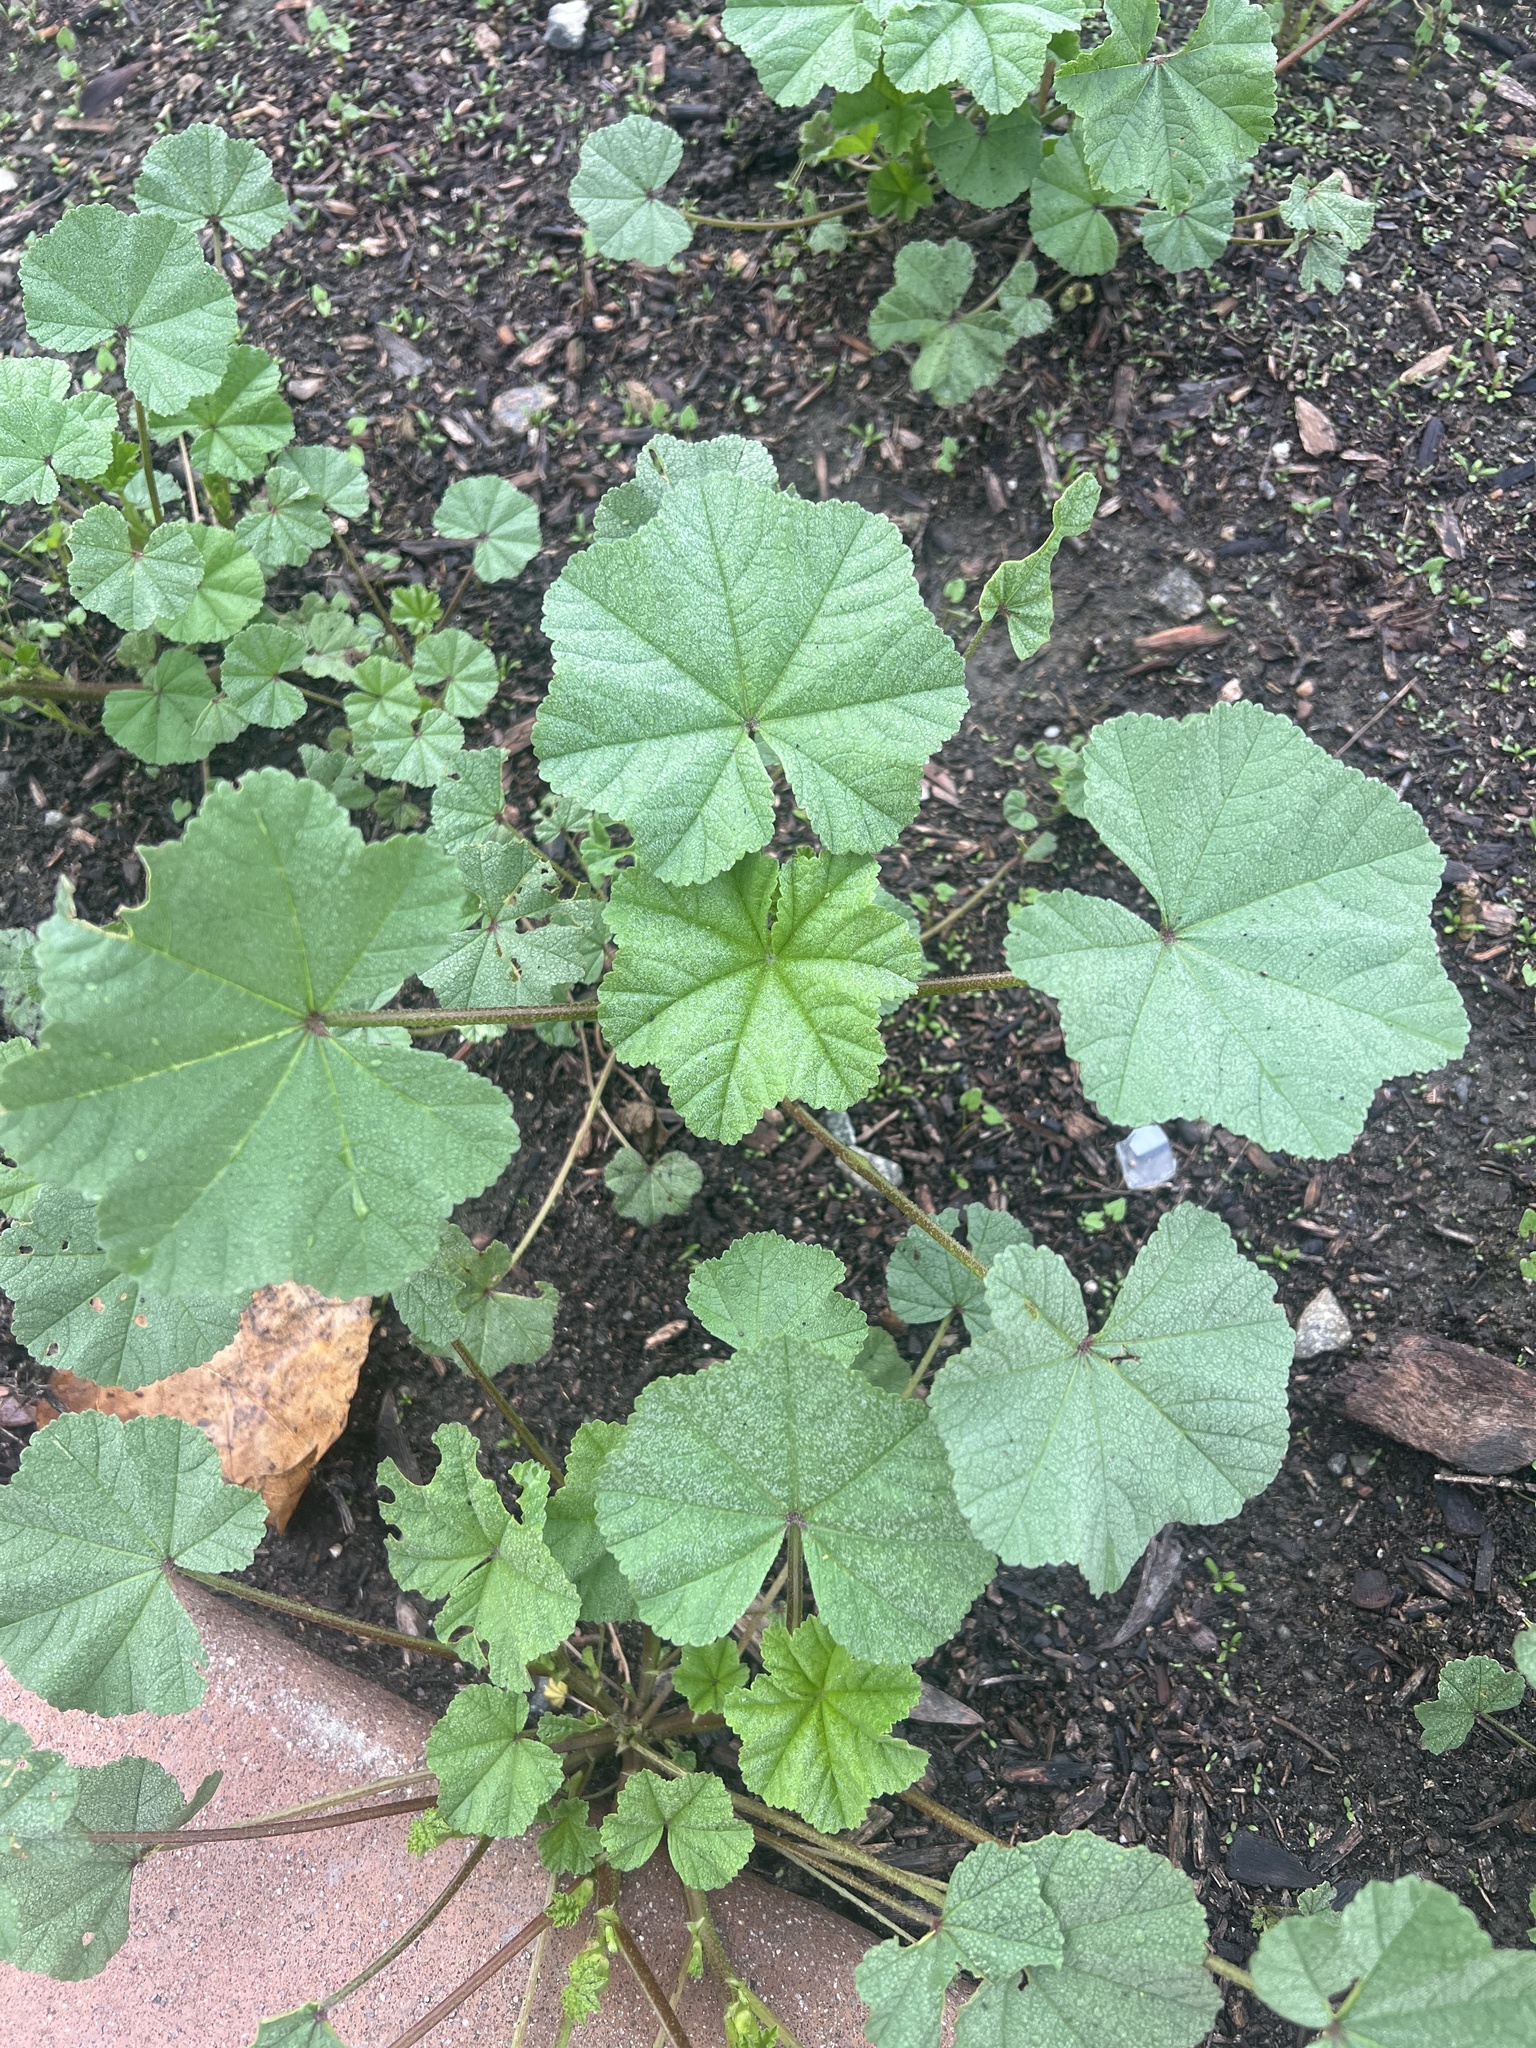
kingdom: Plantae
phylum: Tracheophyta
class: Magnoliopsida
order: Malvales
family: Malvaceae
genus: Malva
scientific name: Malva
